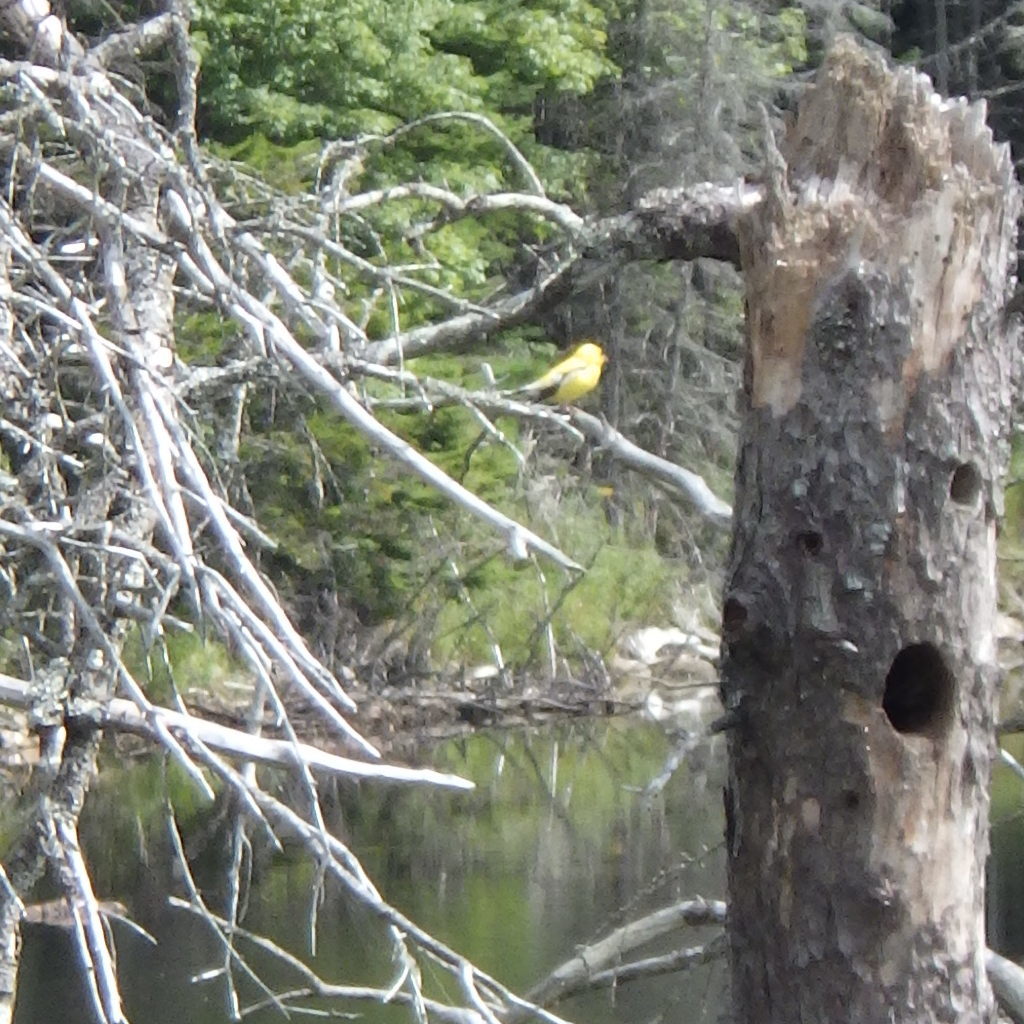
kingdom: Animalia
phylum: Chordata
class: Aves
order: Passeriformes
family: Fringillidae
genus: Spinus
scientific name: Spinus tristis
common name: American goldfinch
